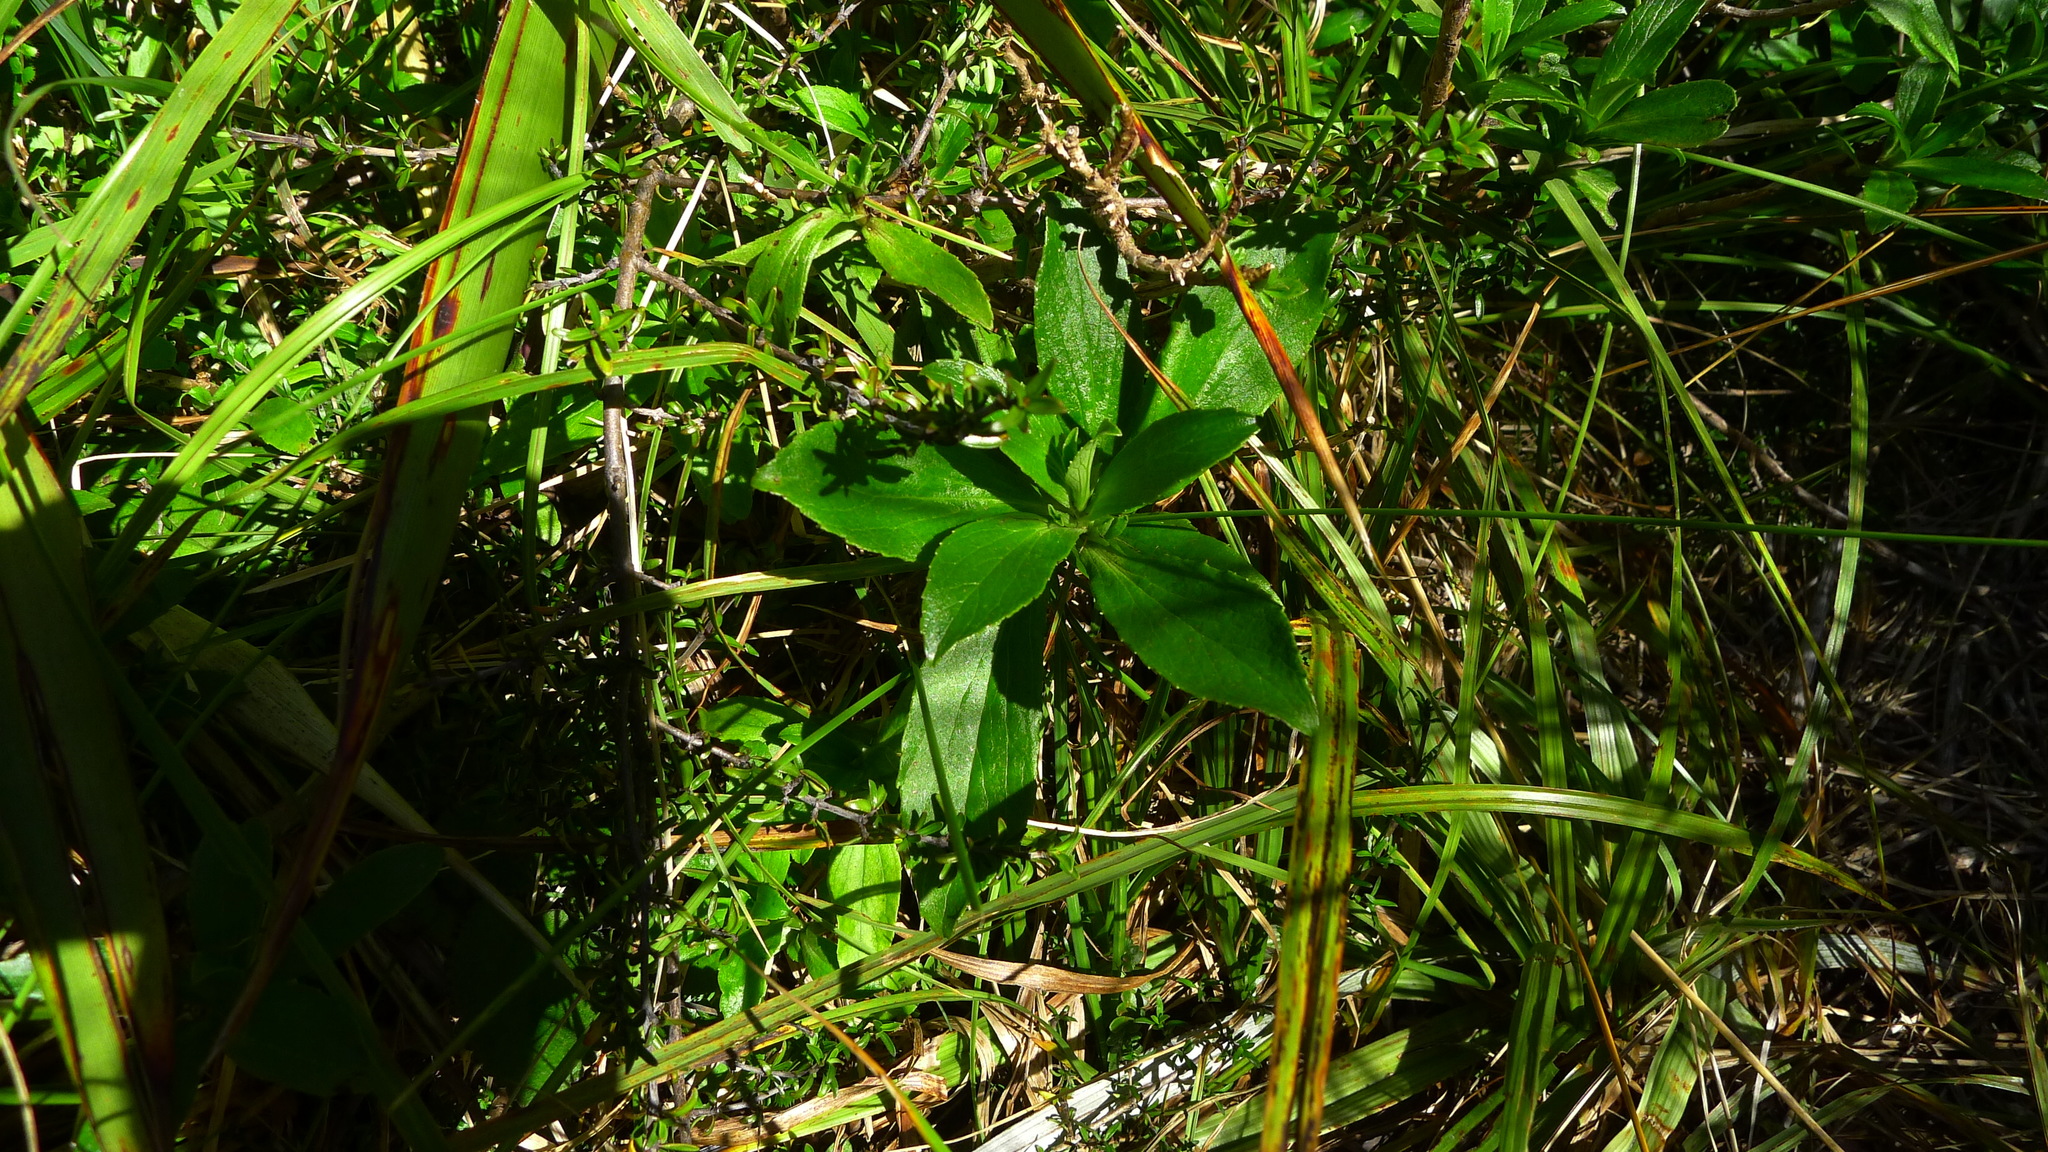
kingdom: Plantae
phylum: Tracheophyta
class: Magnoliopsida
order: Asterales
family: Asteraceae
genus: Traversia
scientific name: Traversia baccharoides
